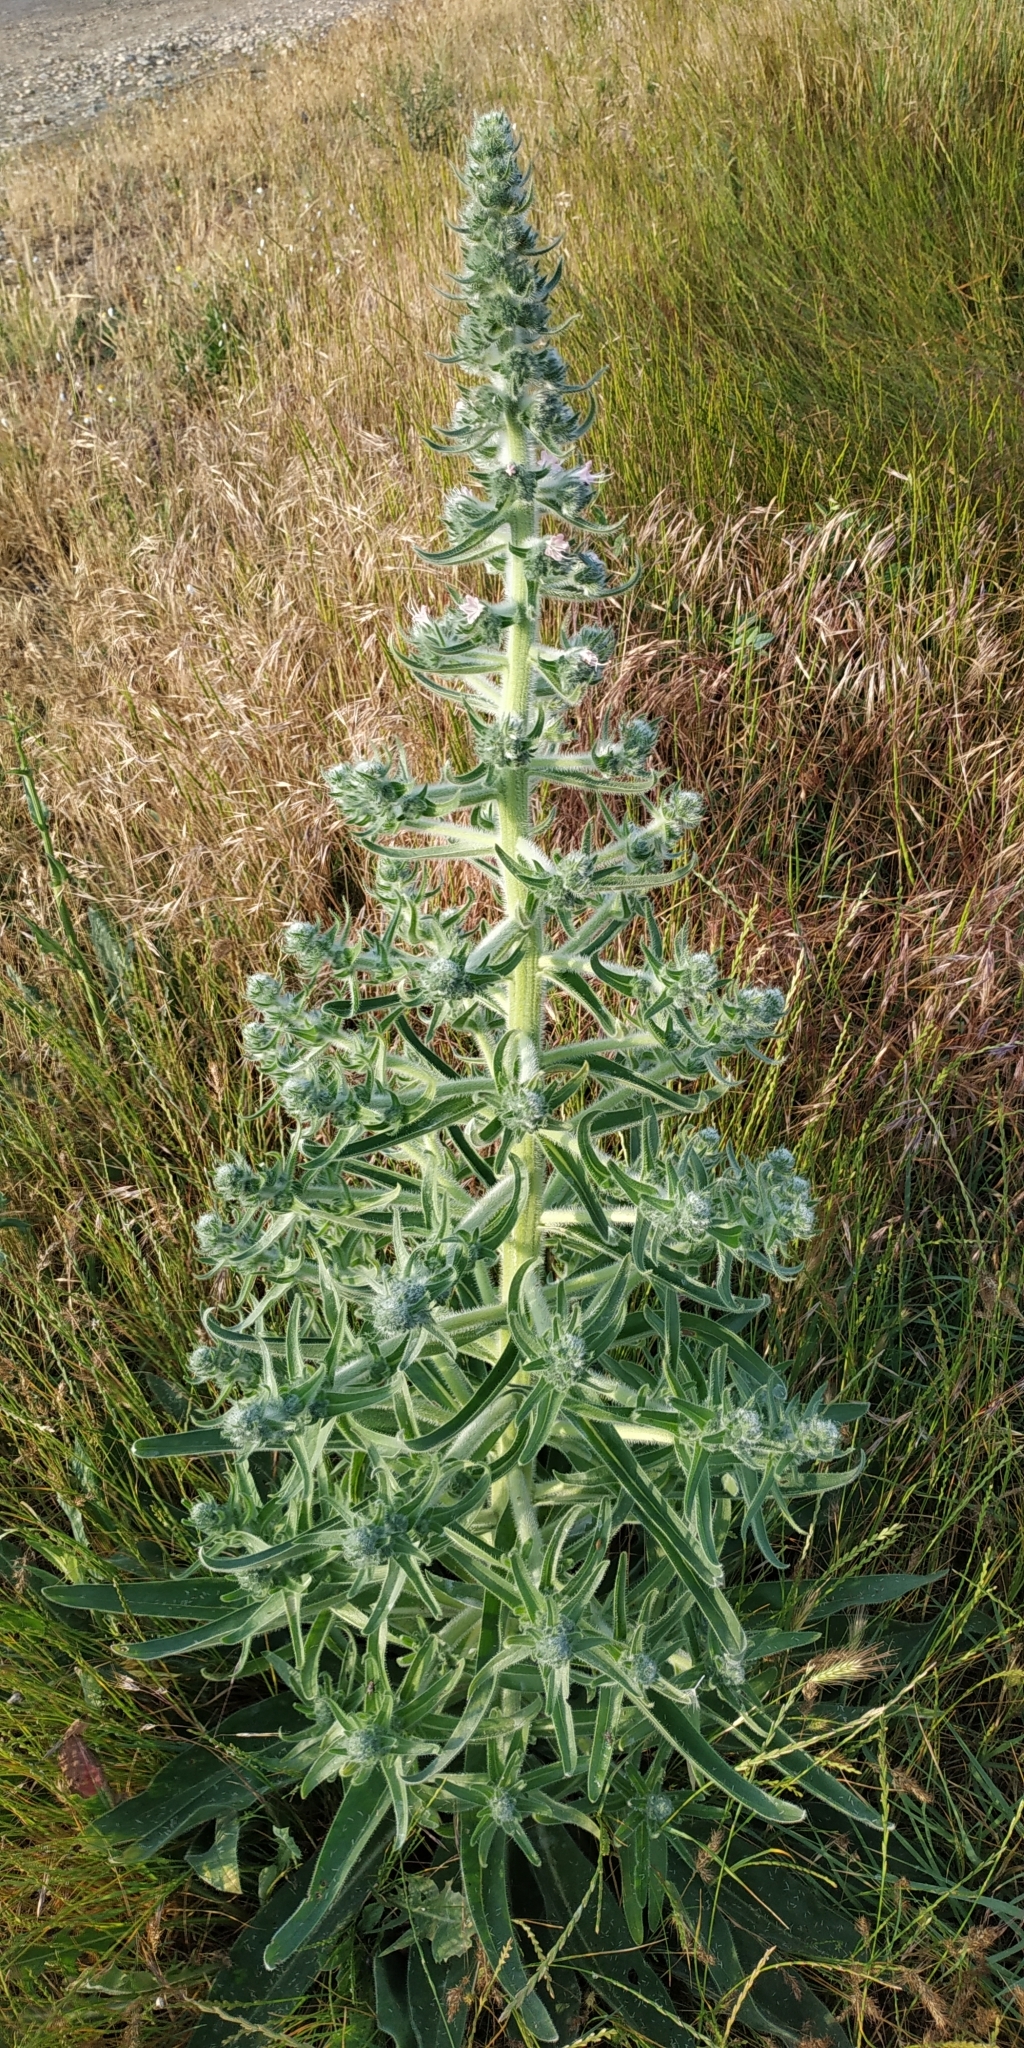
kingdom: Plantae
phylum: Tracheophyta
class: Magnoliopsida
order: Boraginales
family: Boraginaceae
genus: Echium
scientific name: Echium italicum
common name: Italian viper's bugloss
